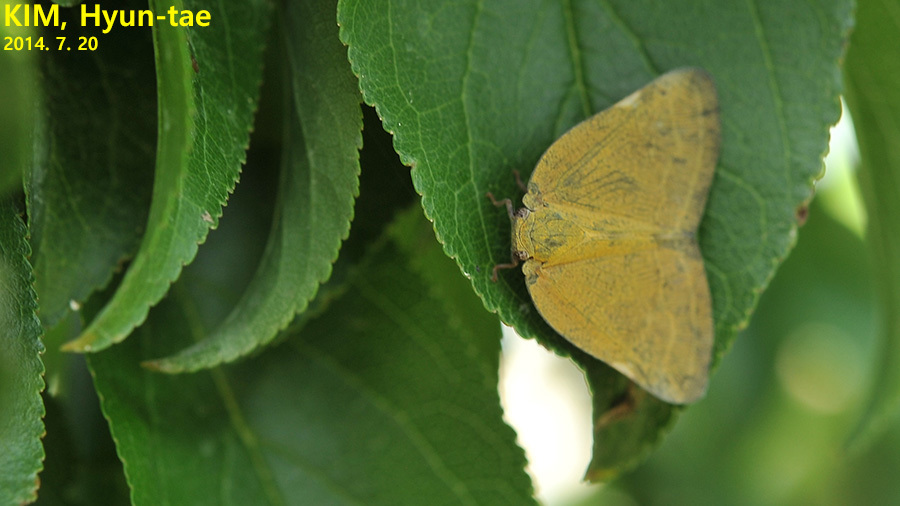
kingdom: Animalia
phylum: Arthropoda
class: Insecta
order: Hemiptera
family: Ricaniidae
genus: Ricanula
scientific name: Ricanula sublimata
